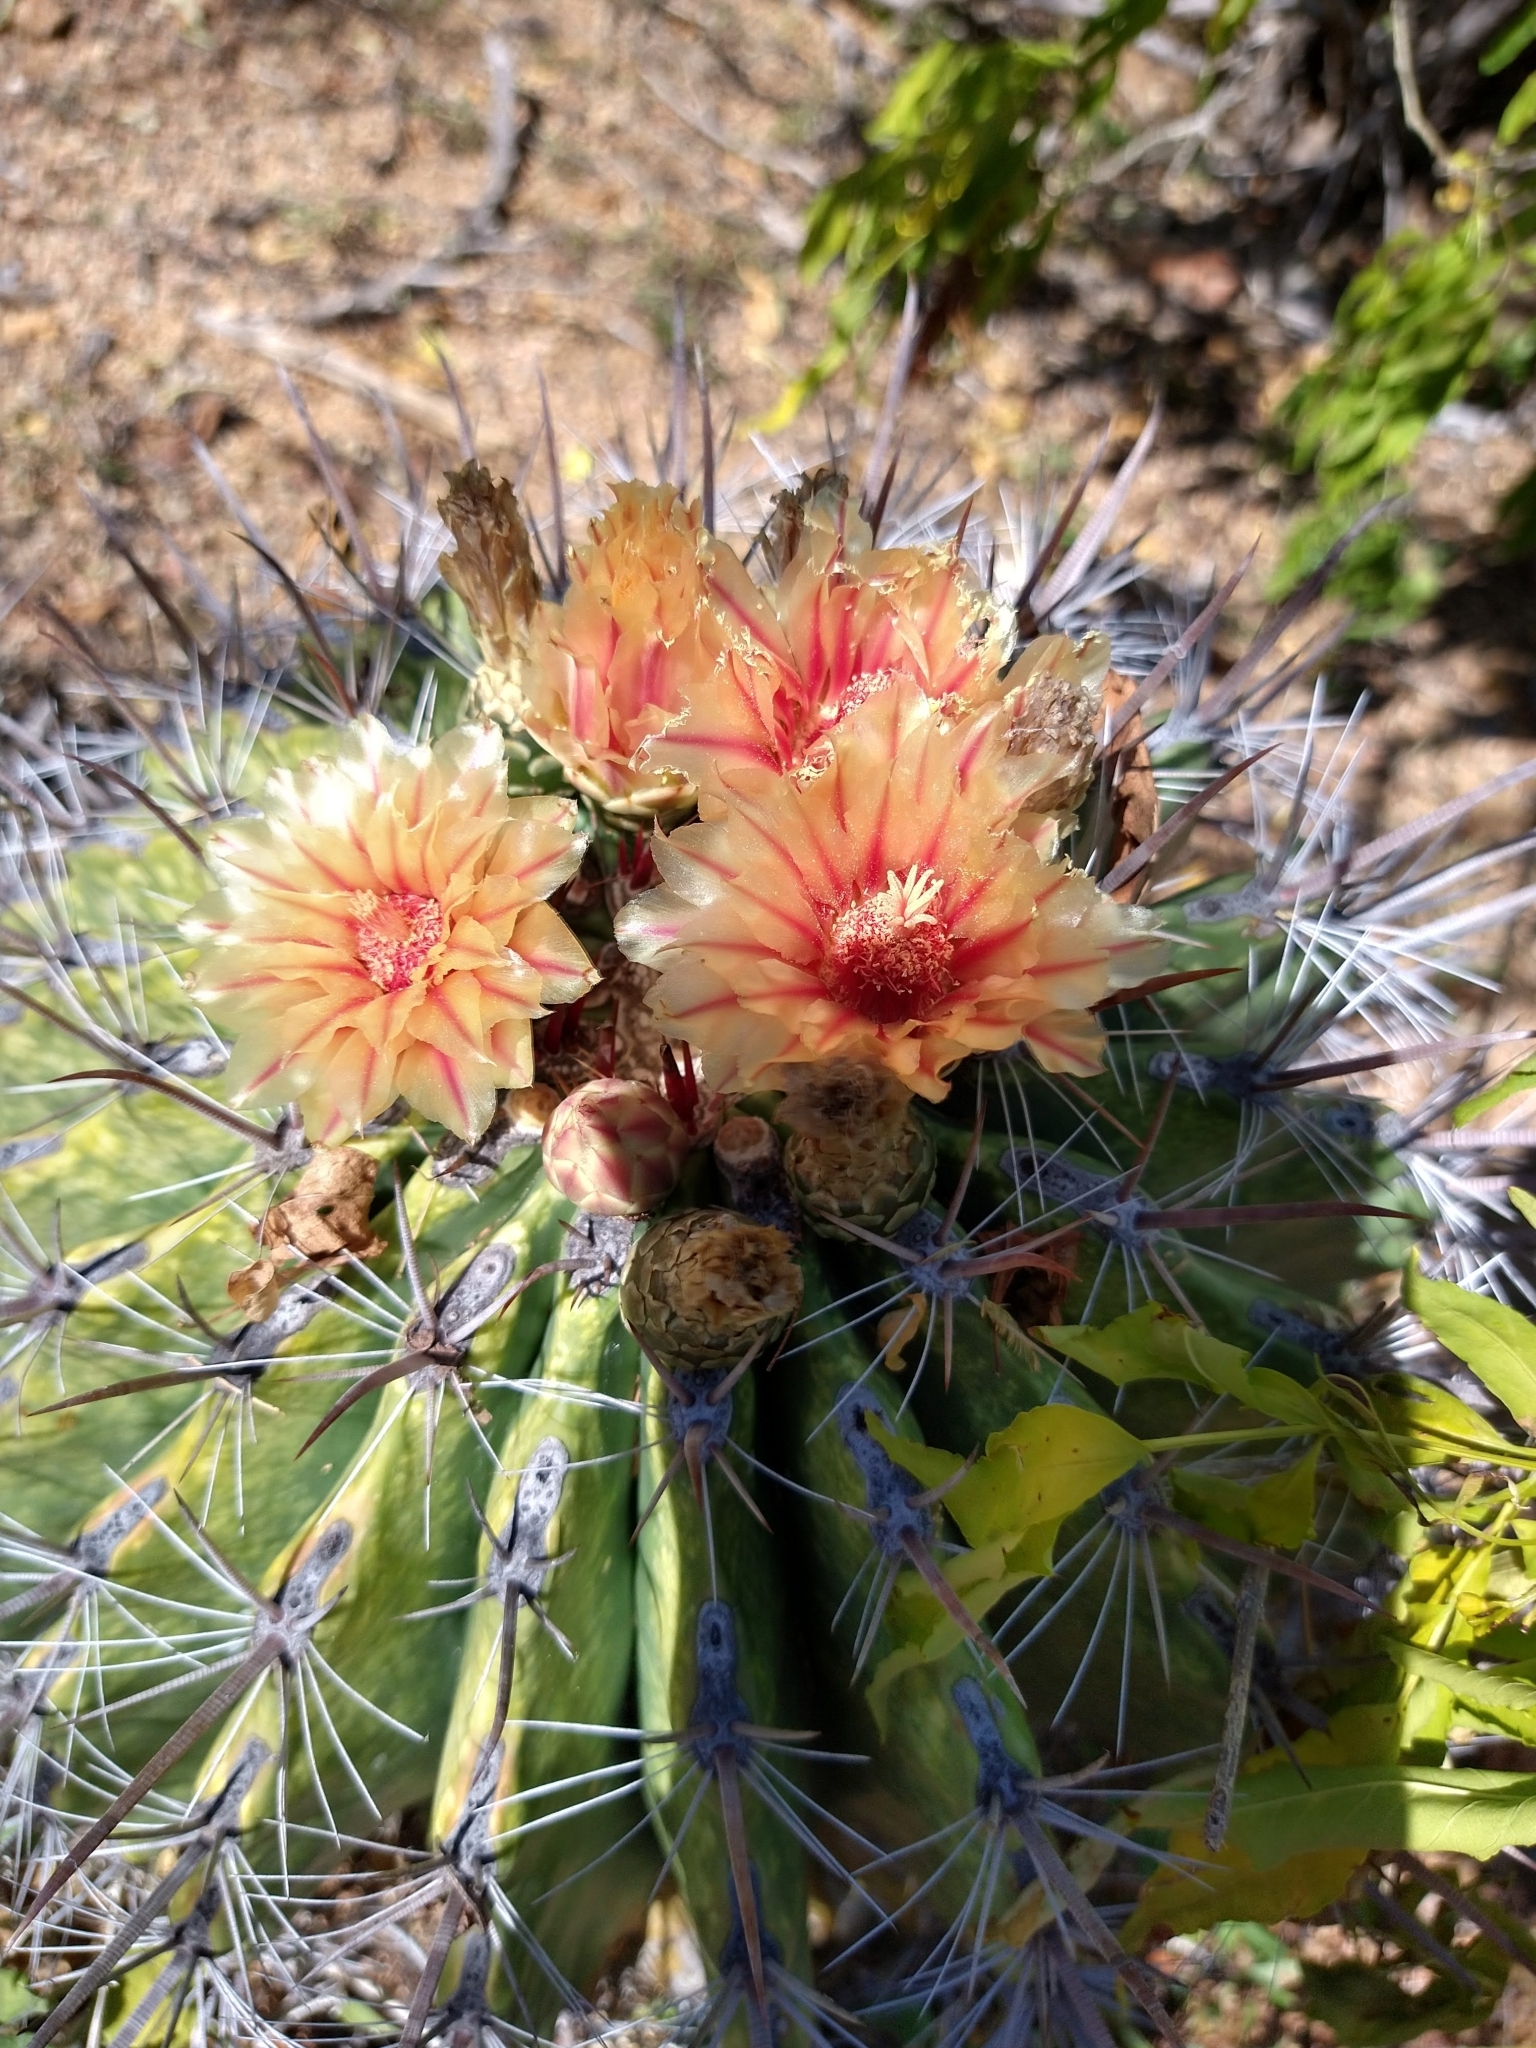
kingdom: Plantae
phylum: Tracheophyta
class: Magnoliopsida
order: Caryophyllales
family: Cactaceae
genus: Ferocactus
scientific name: Ferocactus townsendianus
